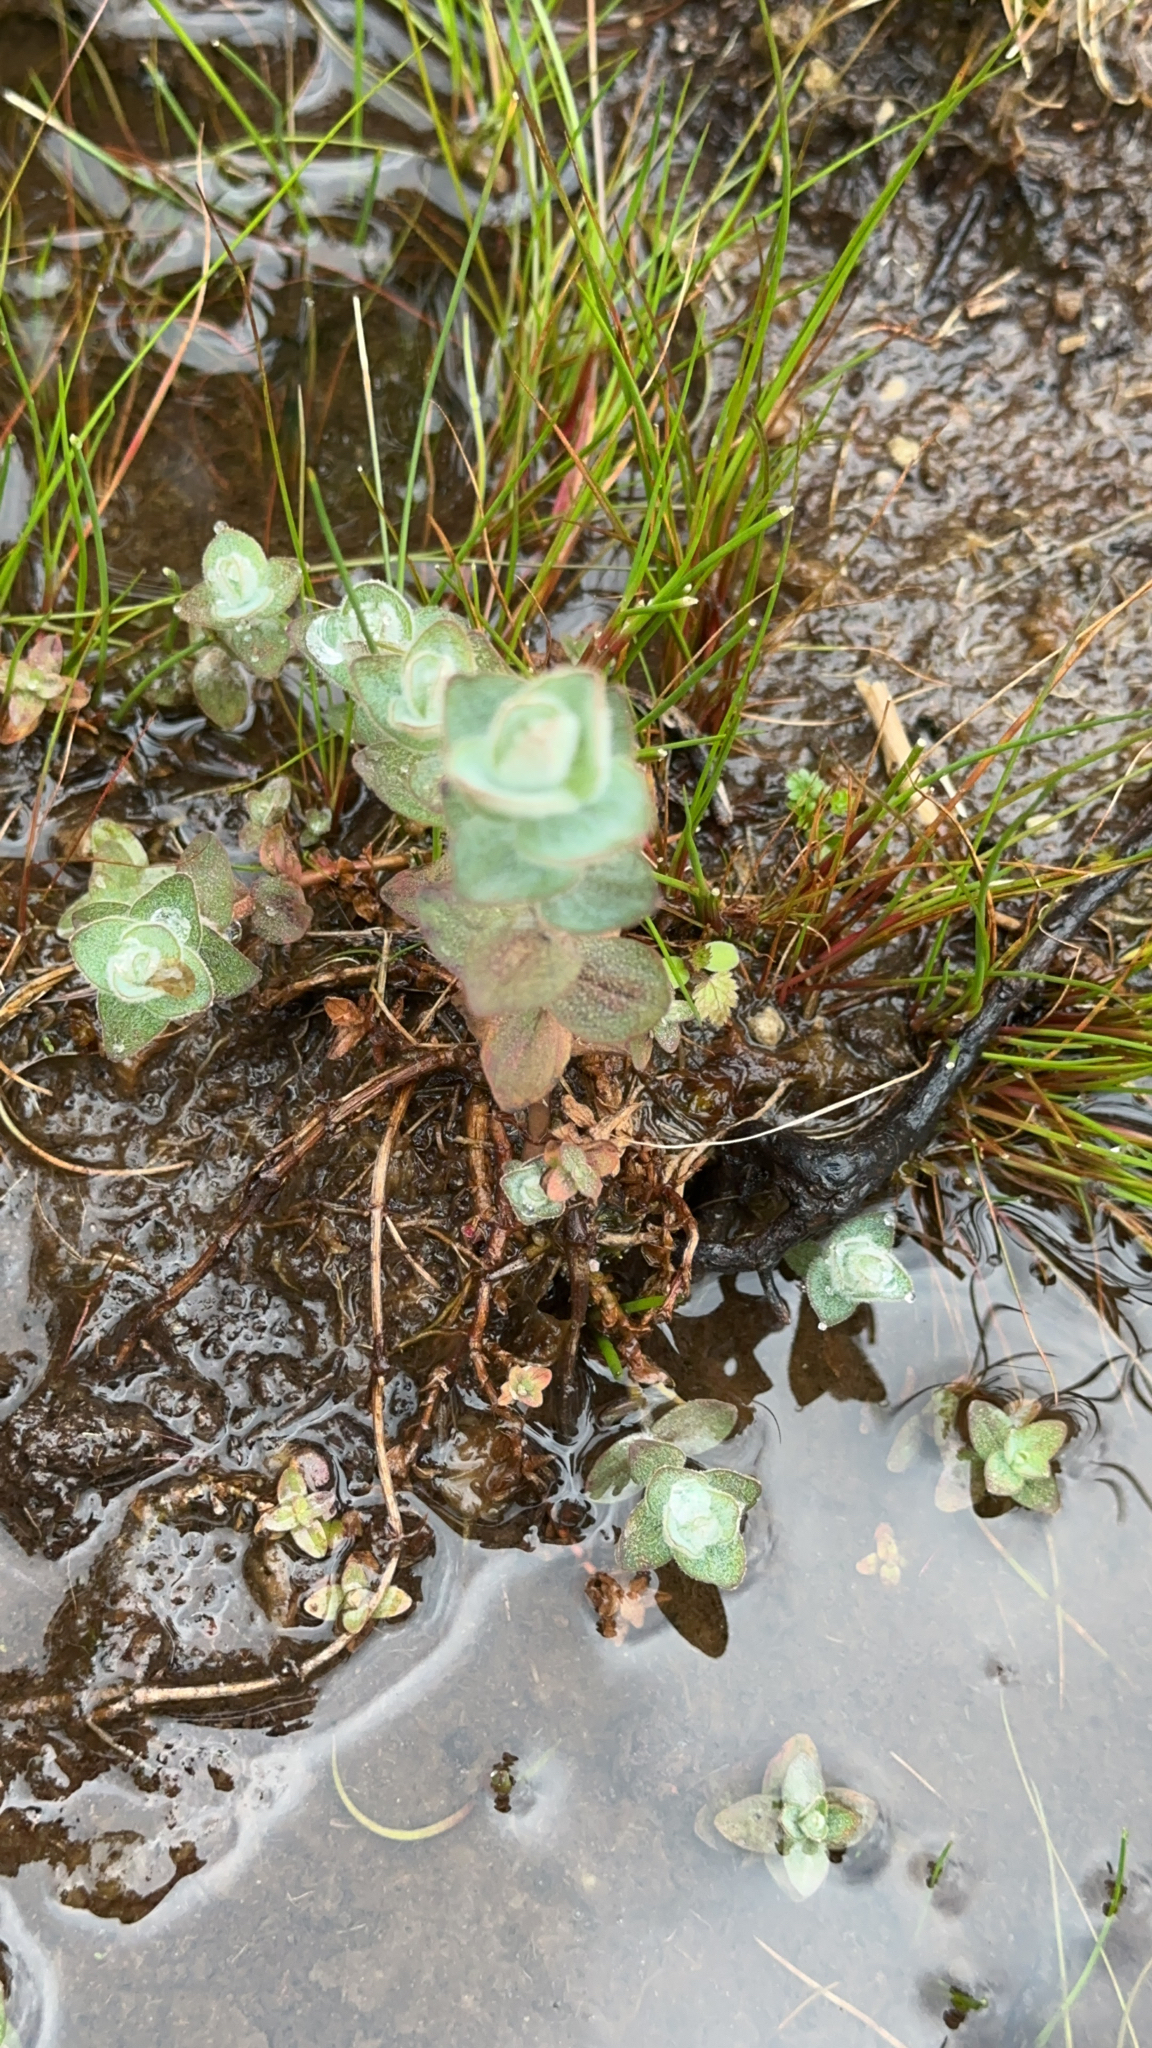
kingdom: Plantae
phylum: Tracheophyta
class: Magnoliopsida
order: Malpighiales
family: Hypericaceae
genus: Hypericum
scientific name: Hypericum elodes
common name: Marsh st. john's-wort
